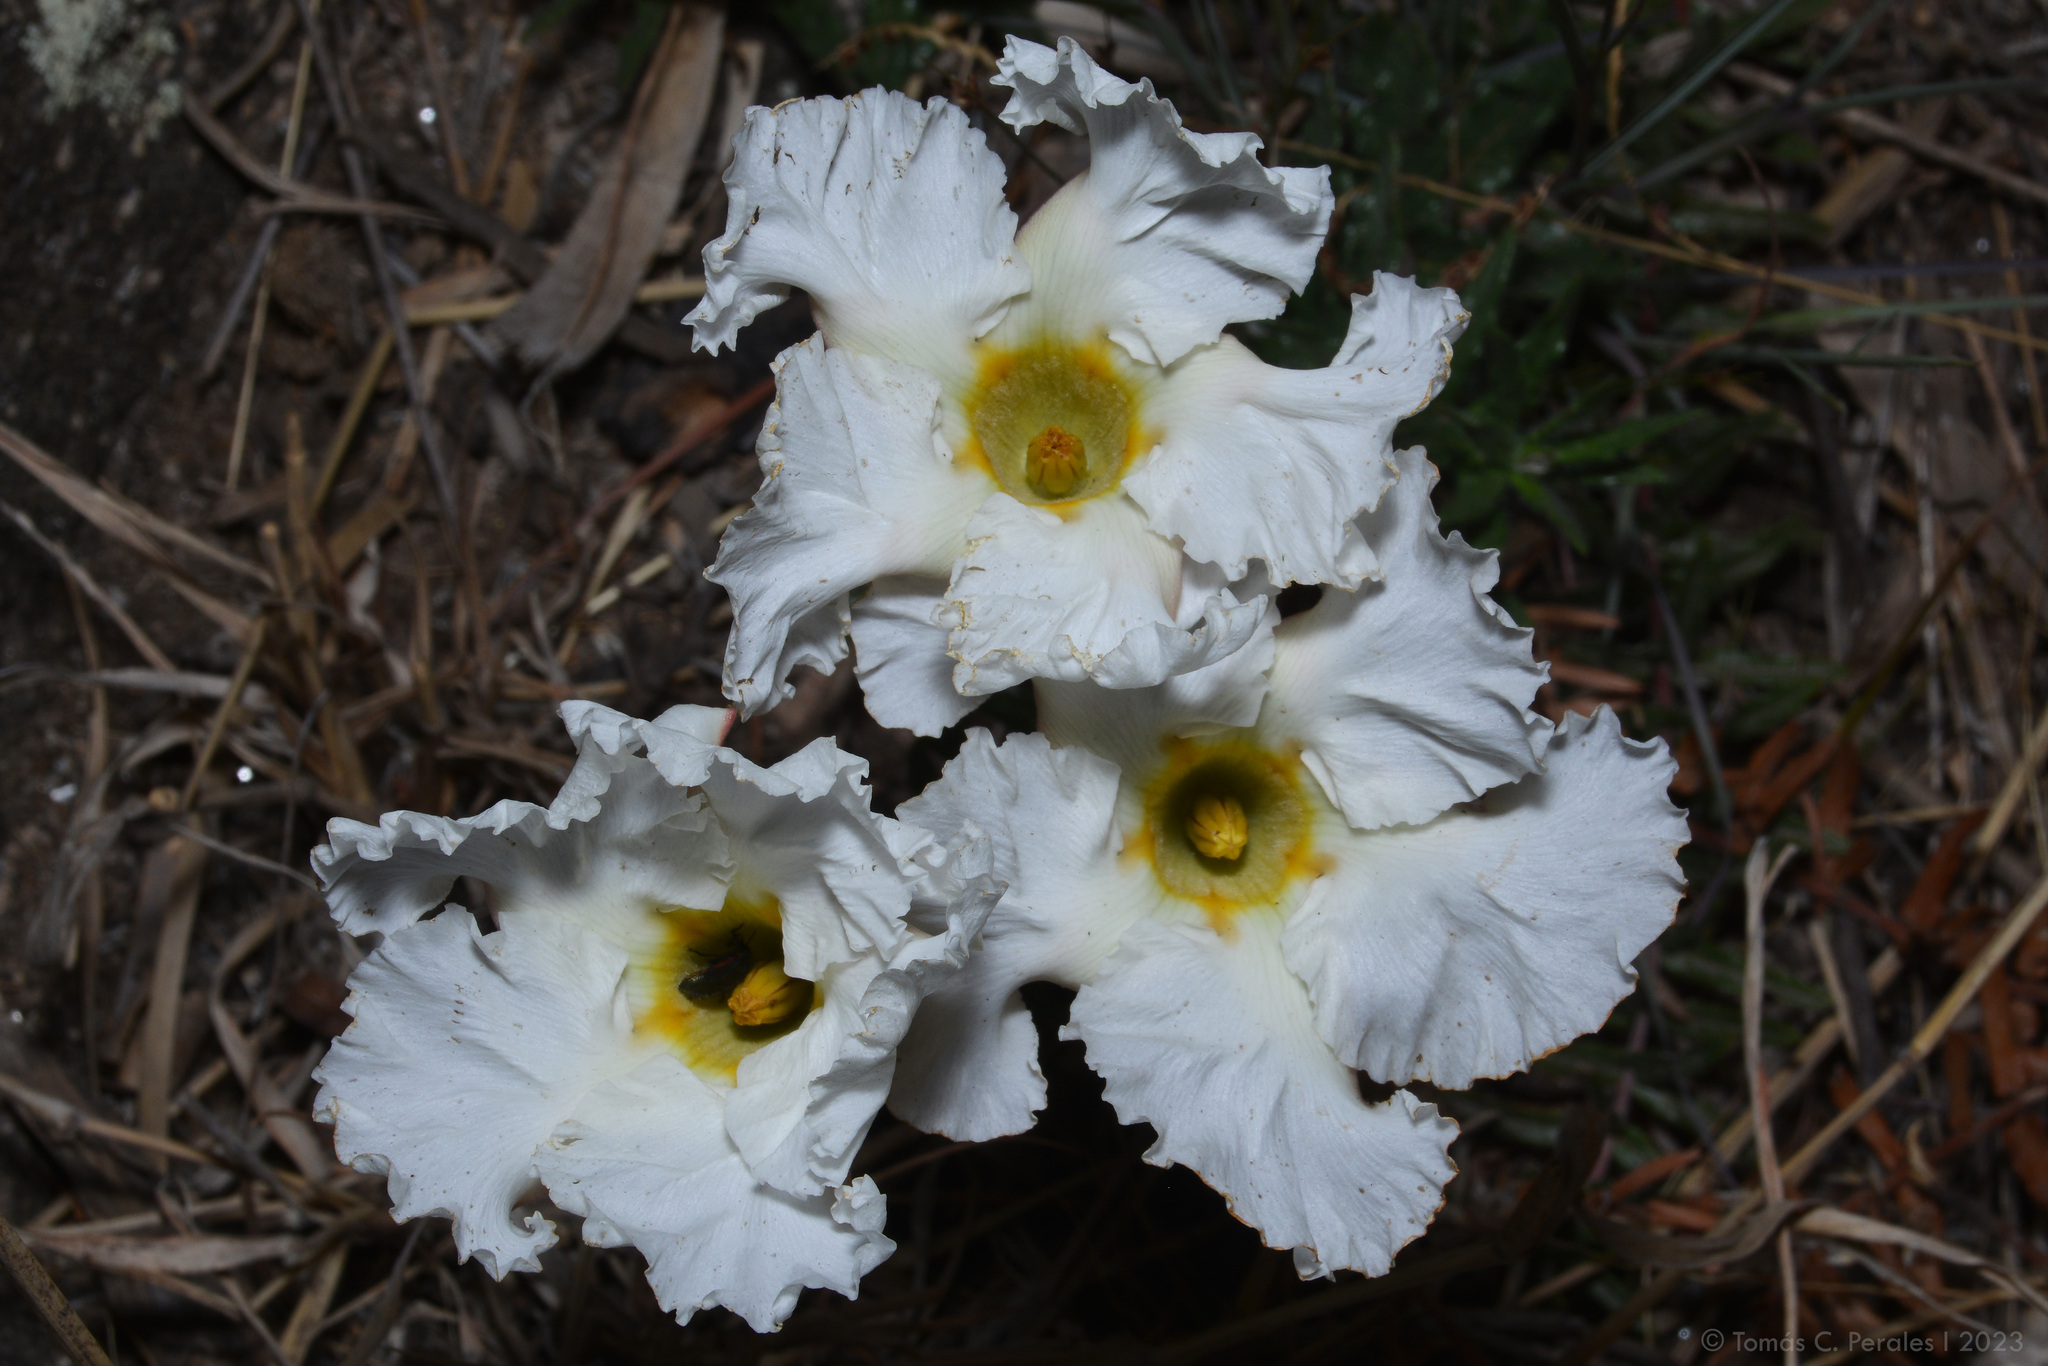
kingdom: Plantae
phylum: Tracheophyta
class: Magnoliopsida
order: Gentianales
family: Apocynaceae
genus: Mandevilla
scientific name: Mandevilla petraea
